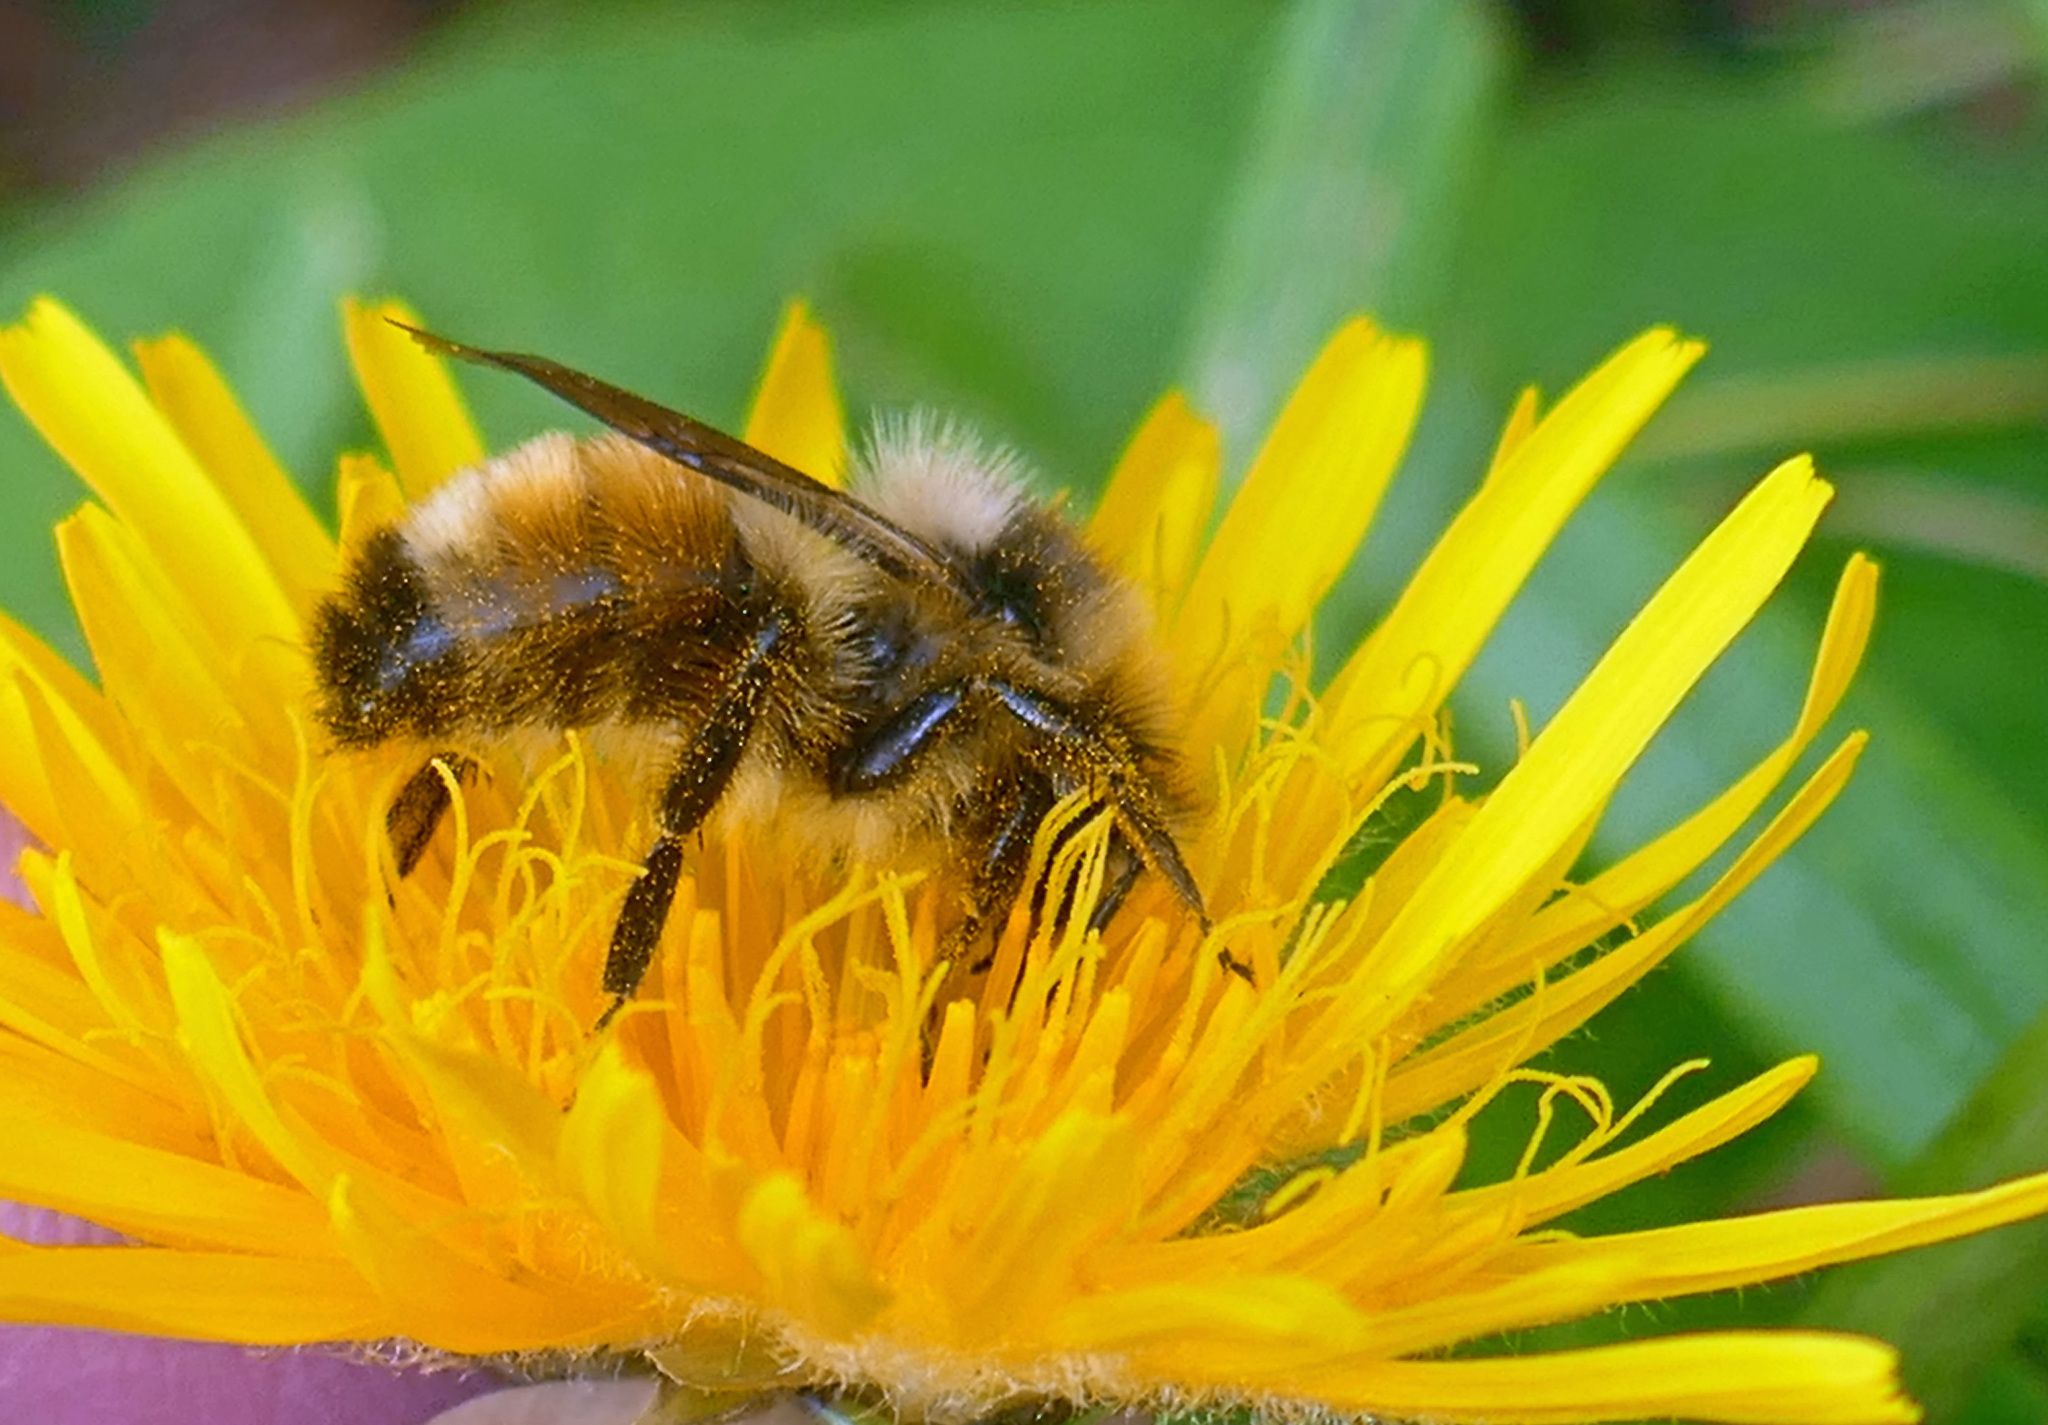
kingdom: Animalia
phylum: Arthropoda
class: Insecta
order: Hymenoptera
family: Apidae
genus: Bombus
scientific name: Bombus ternarius
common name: Tri-colored bumble bee
